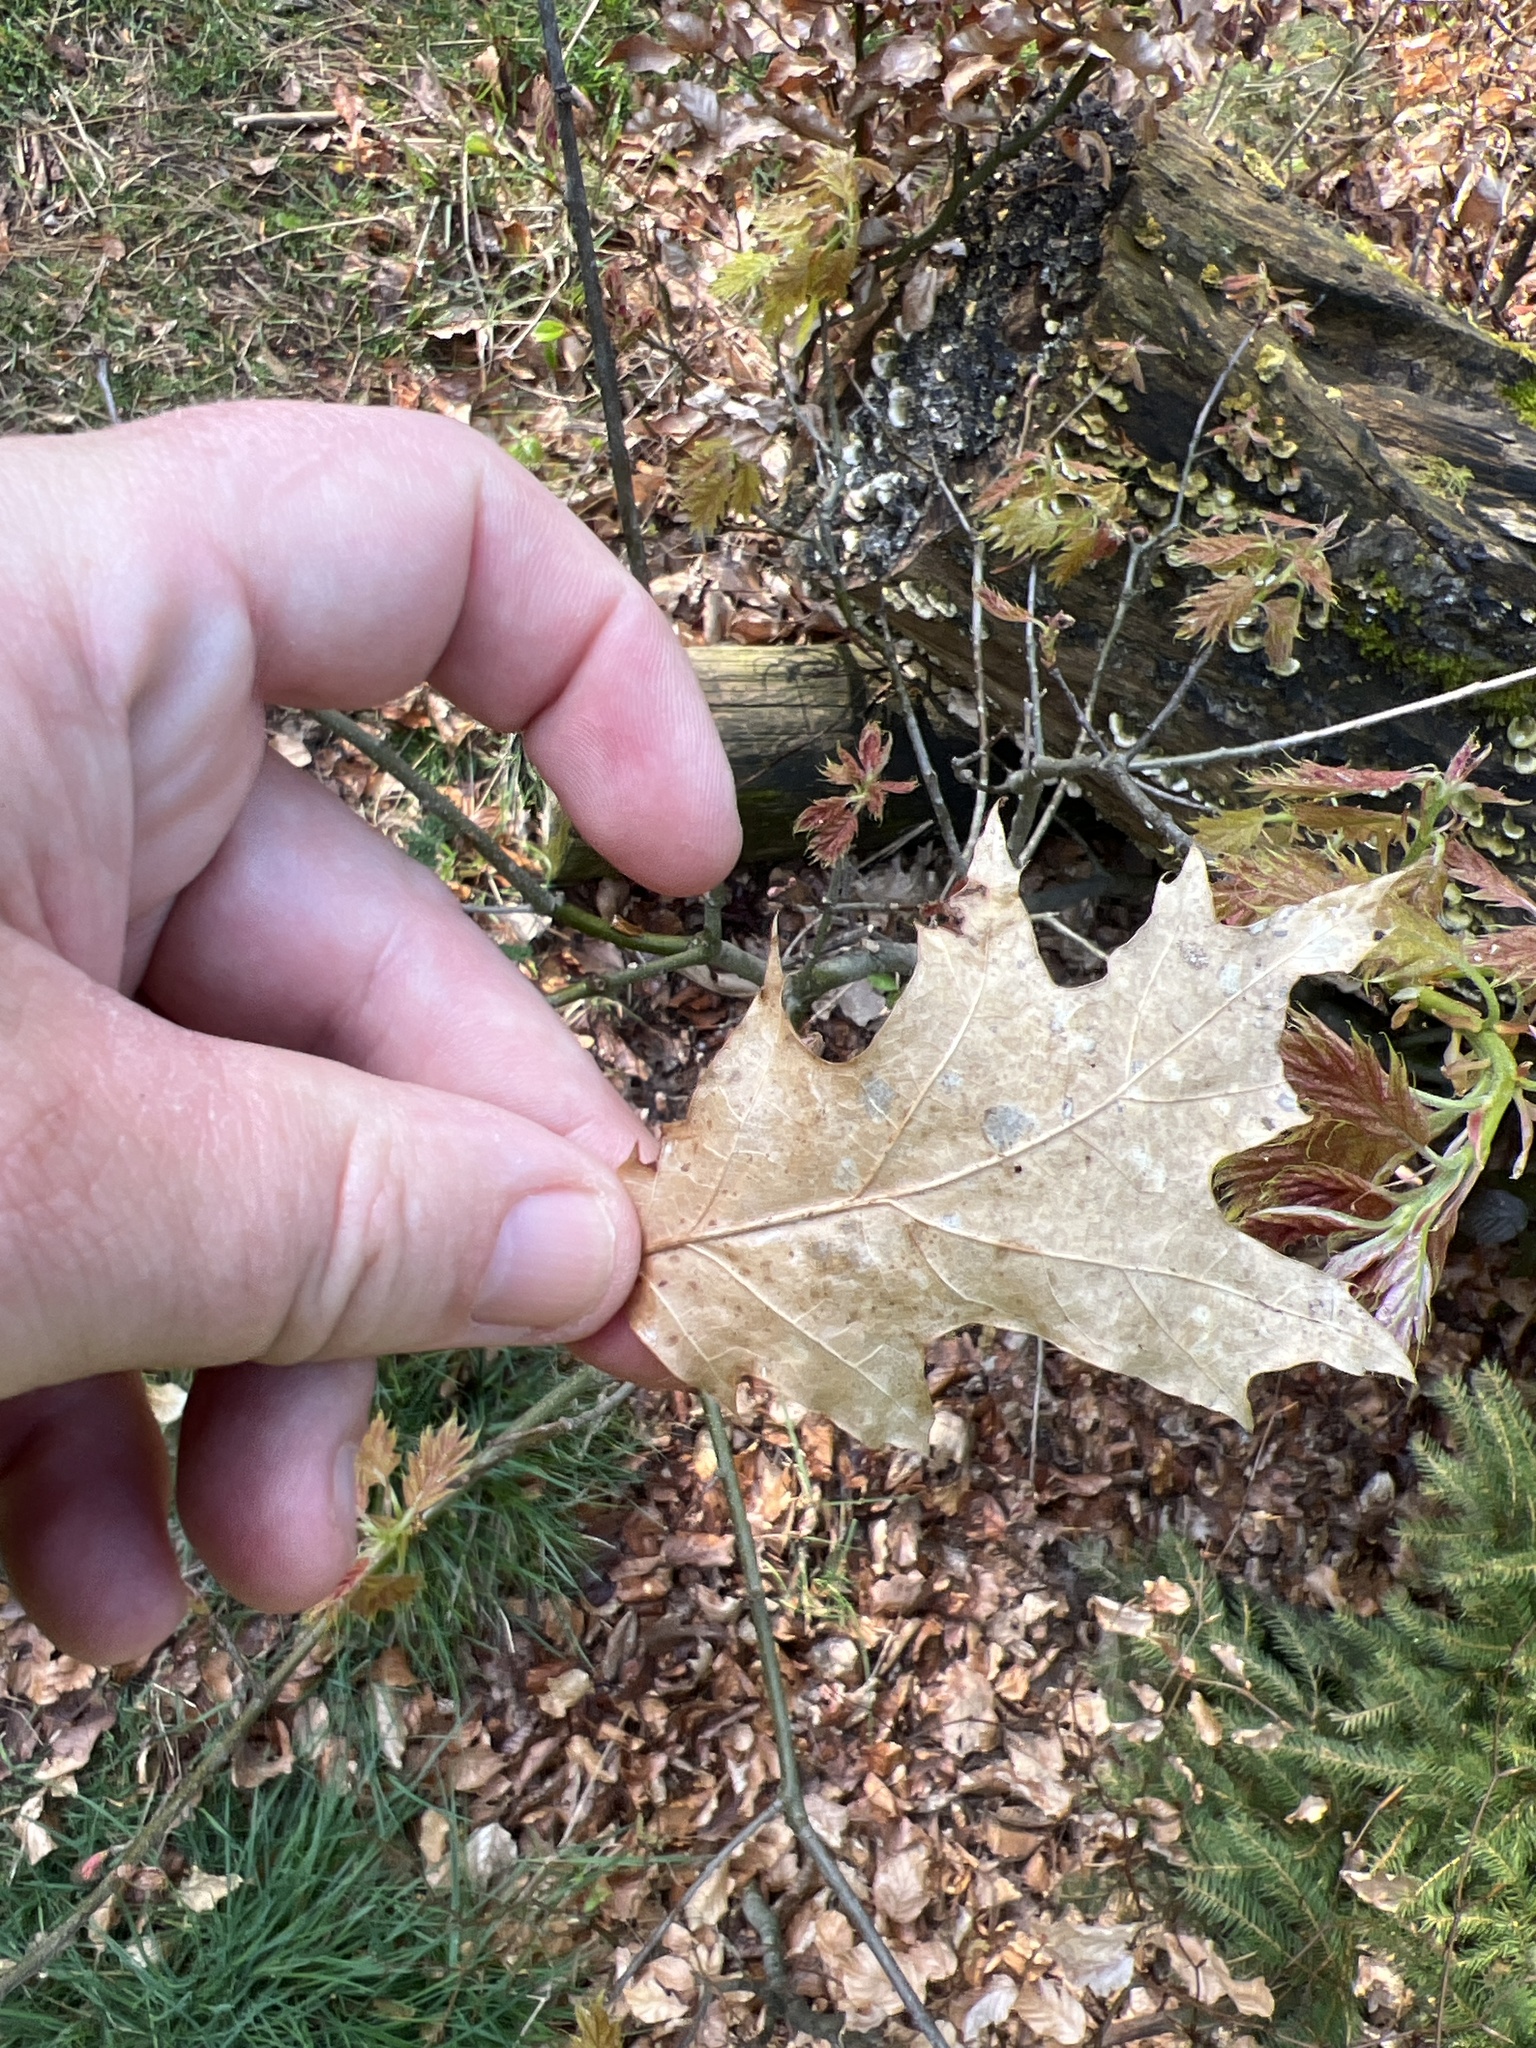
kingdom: Plantae
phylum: Tracheophyta
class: Magnoliopsida
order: Fagales
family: Fagaceae
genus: Quercus
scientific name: Quercus rubra
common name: Red oak
